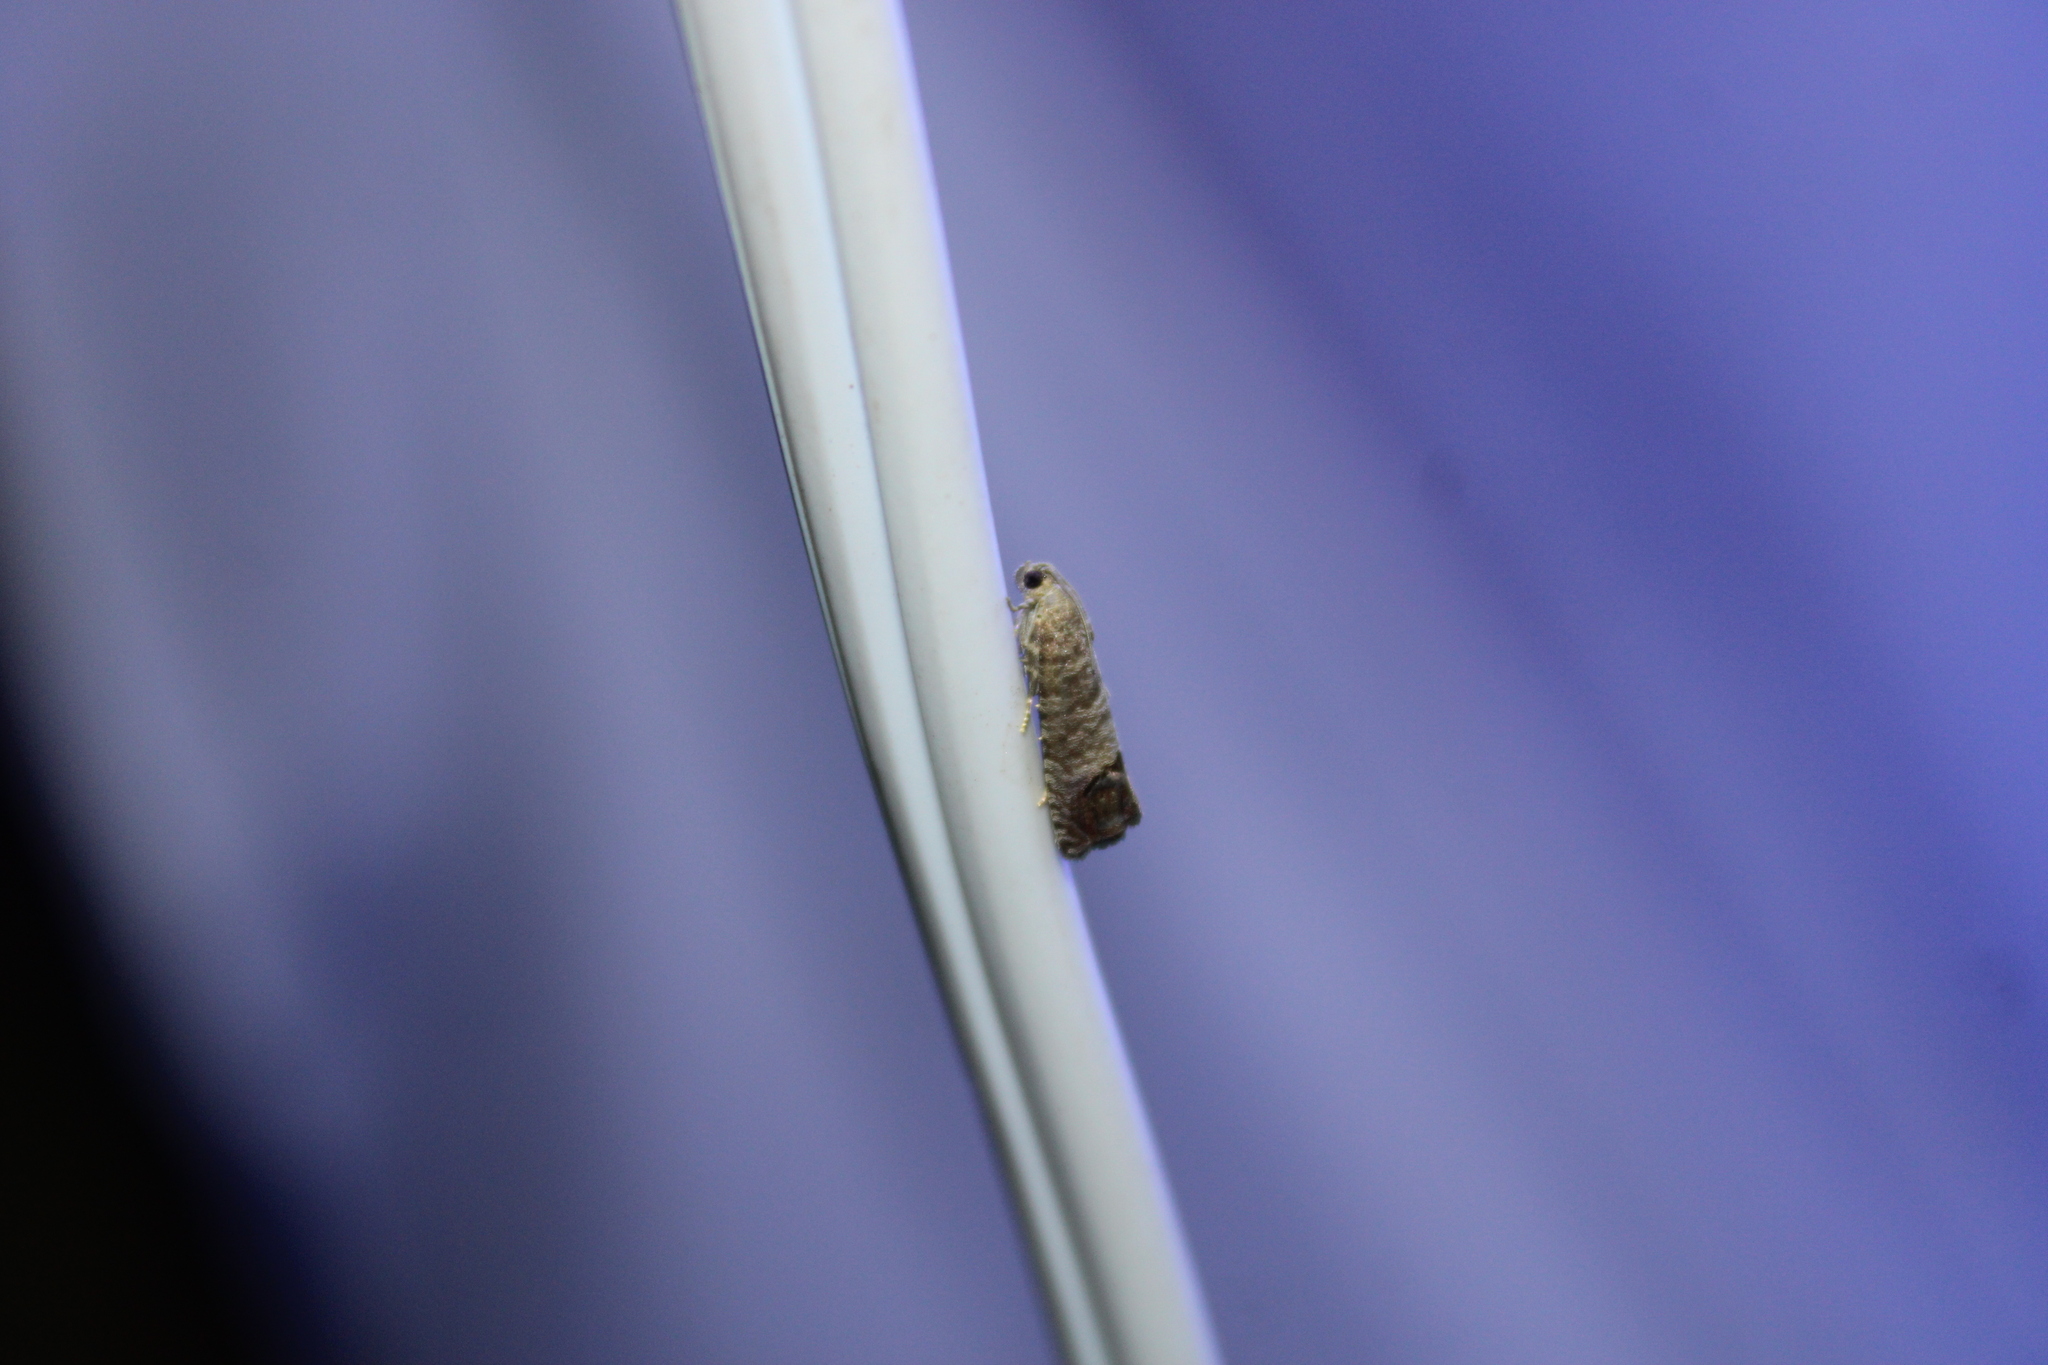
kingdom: Animalia
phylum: Arthropoda
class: Insecta
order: Lepidoptera
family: Tortricidae
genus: Cydia
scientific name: Cydia pomonella
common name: Codling moth
